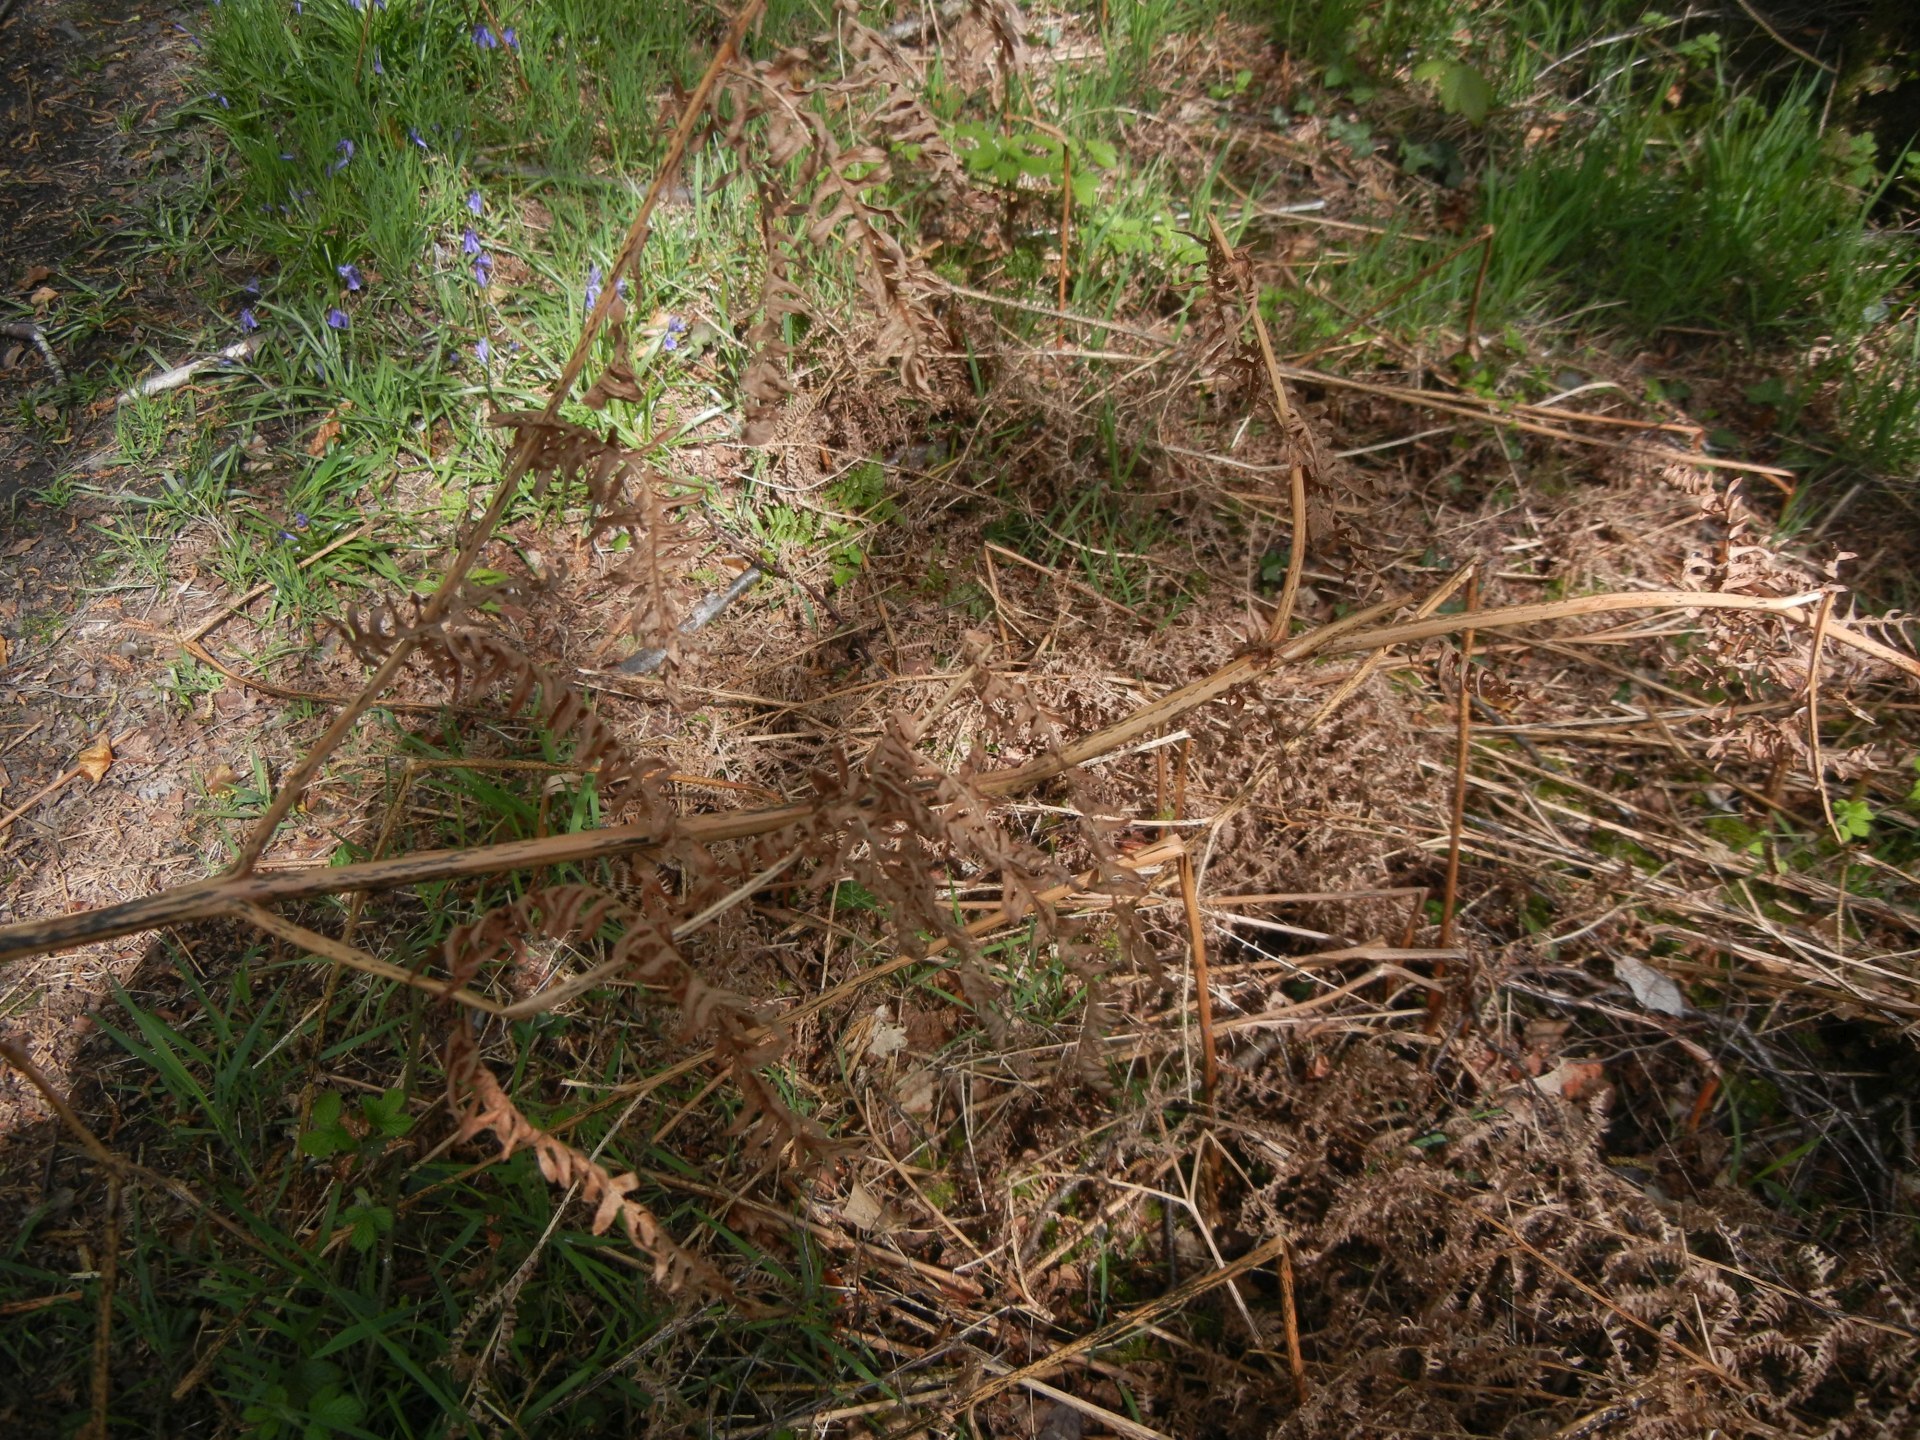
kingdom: Plantae
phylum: Tracheophyta
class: Polypodiopsida
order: Polypodiales
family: Dennstaedtiaceae
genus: Pteridium
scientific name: Pteridium aquilinum
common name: Bracken
